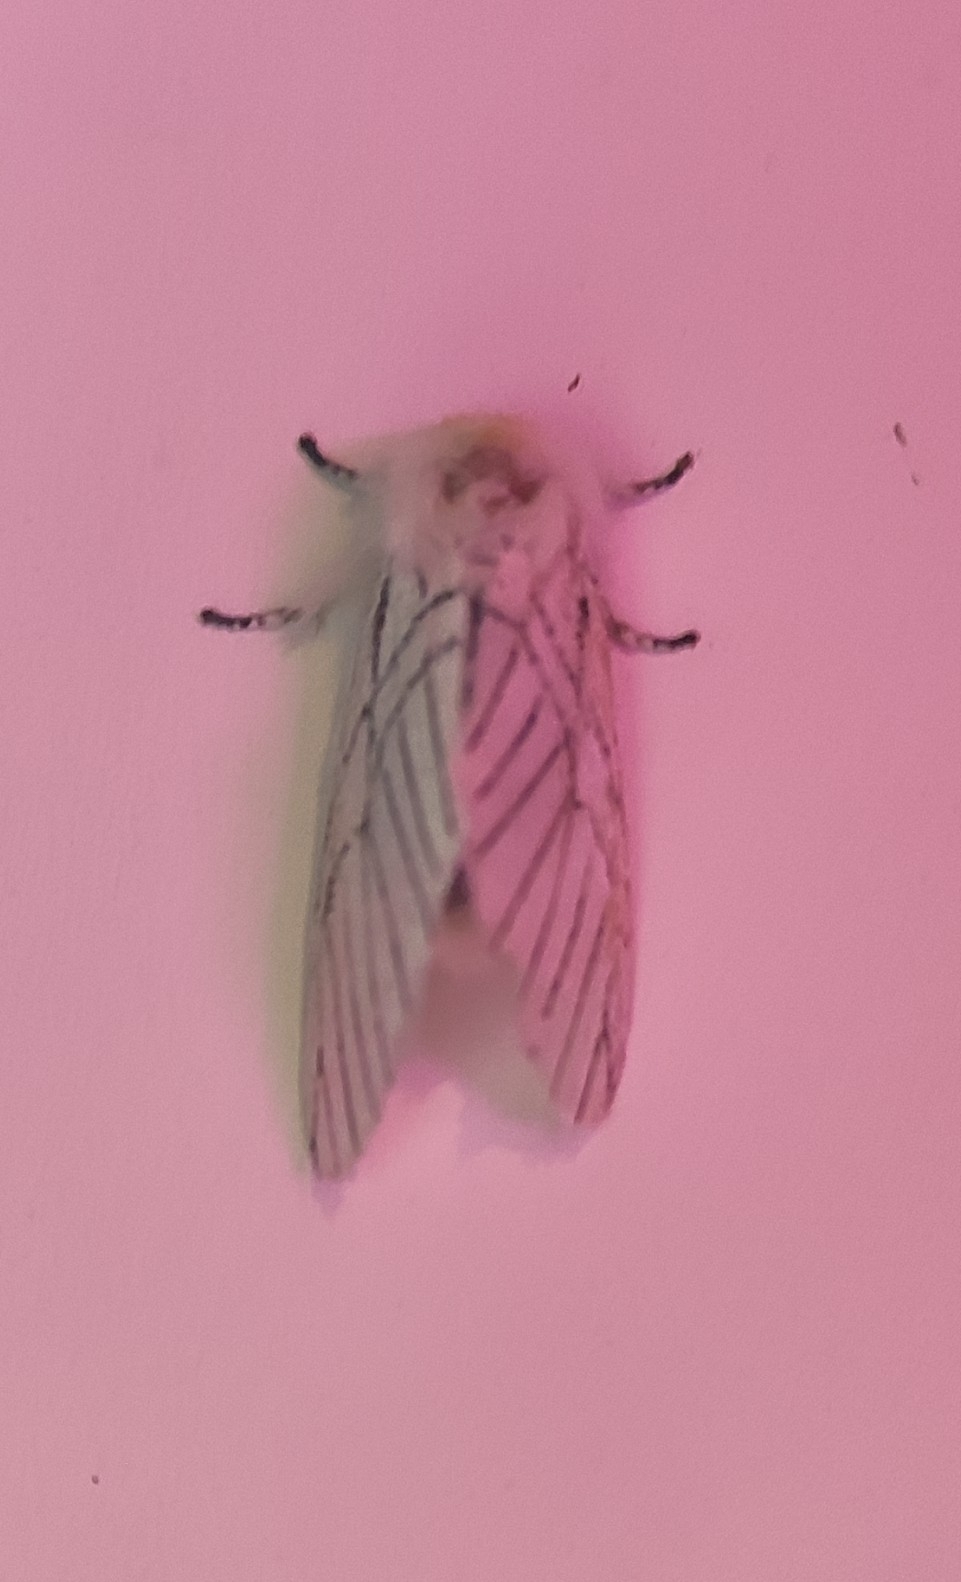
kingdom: Animalia
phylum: Arthropoda
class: Insecta
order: Lepidoptera
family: Notodontidae
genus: Oligoclona
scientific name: Oligoclona chrysolopha
